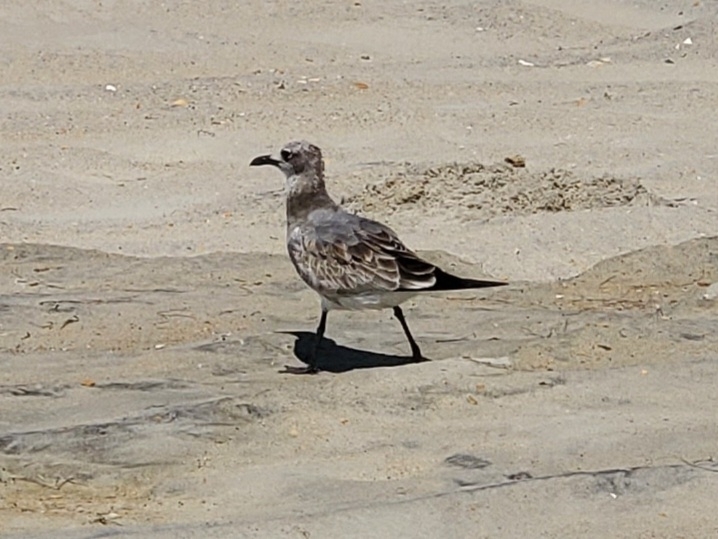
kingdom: Animalia
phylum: Chordata
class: Aves
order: Charadriiformes
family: Laridae
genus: Leucophaeus
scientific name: Leucophaeus atricilla
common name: Laughing gull
